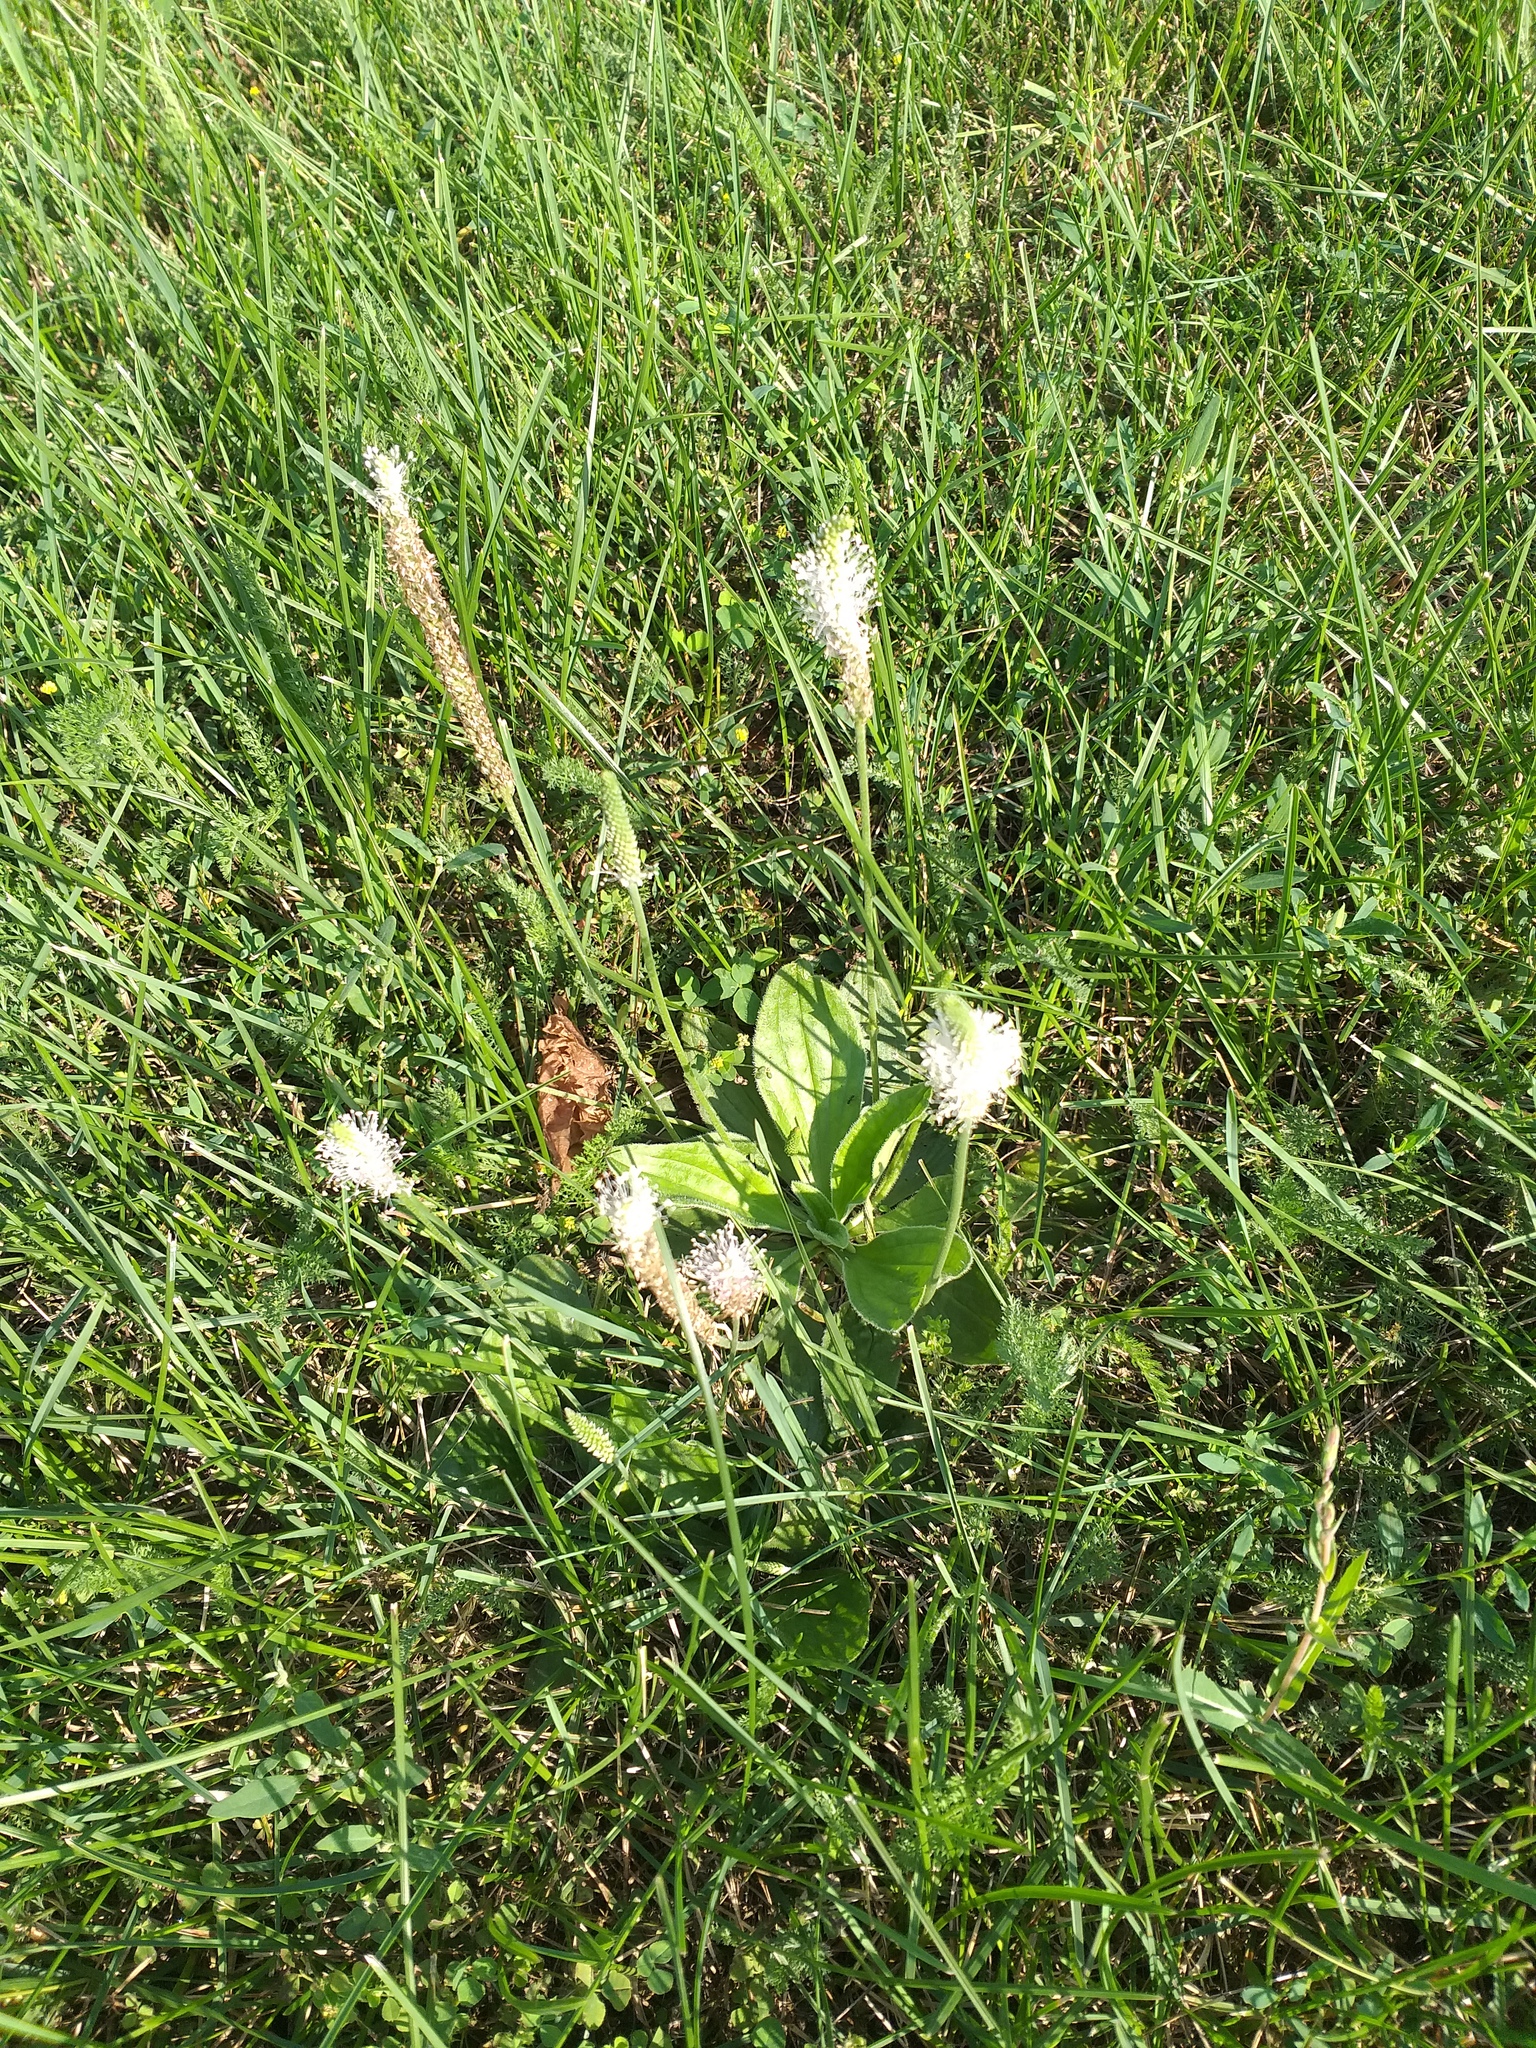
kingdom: Plantae
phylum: Tracheophyta
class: Magnoliopsida
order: Lamiales
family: Plantaginaceae
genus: Plantago
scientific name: Plantago media
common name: Hoary plantain
